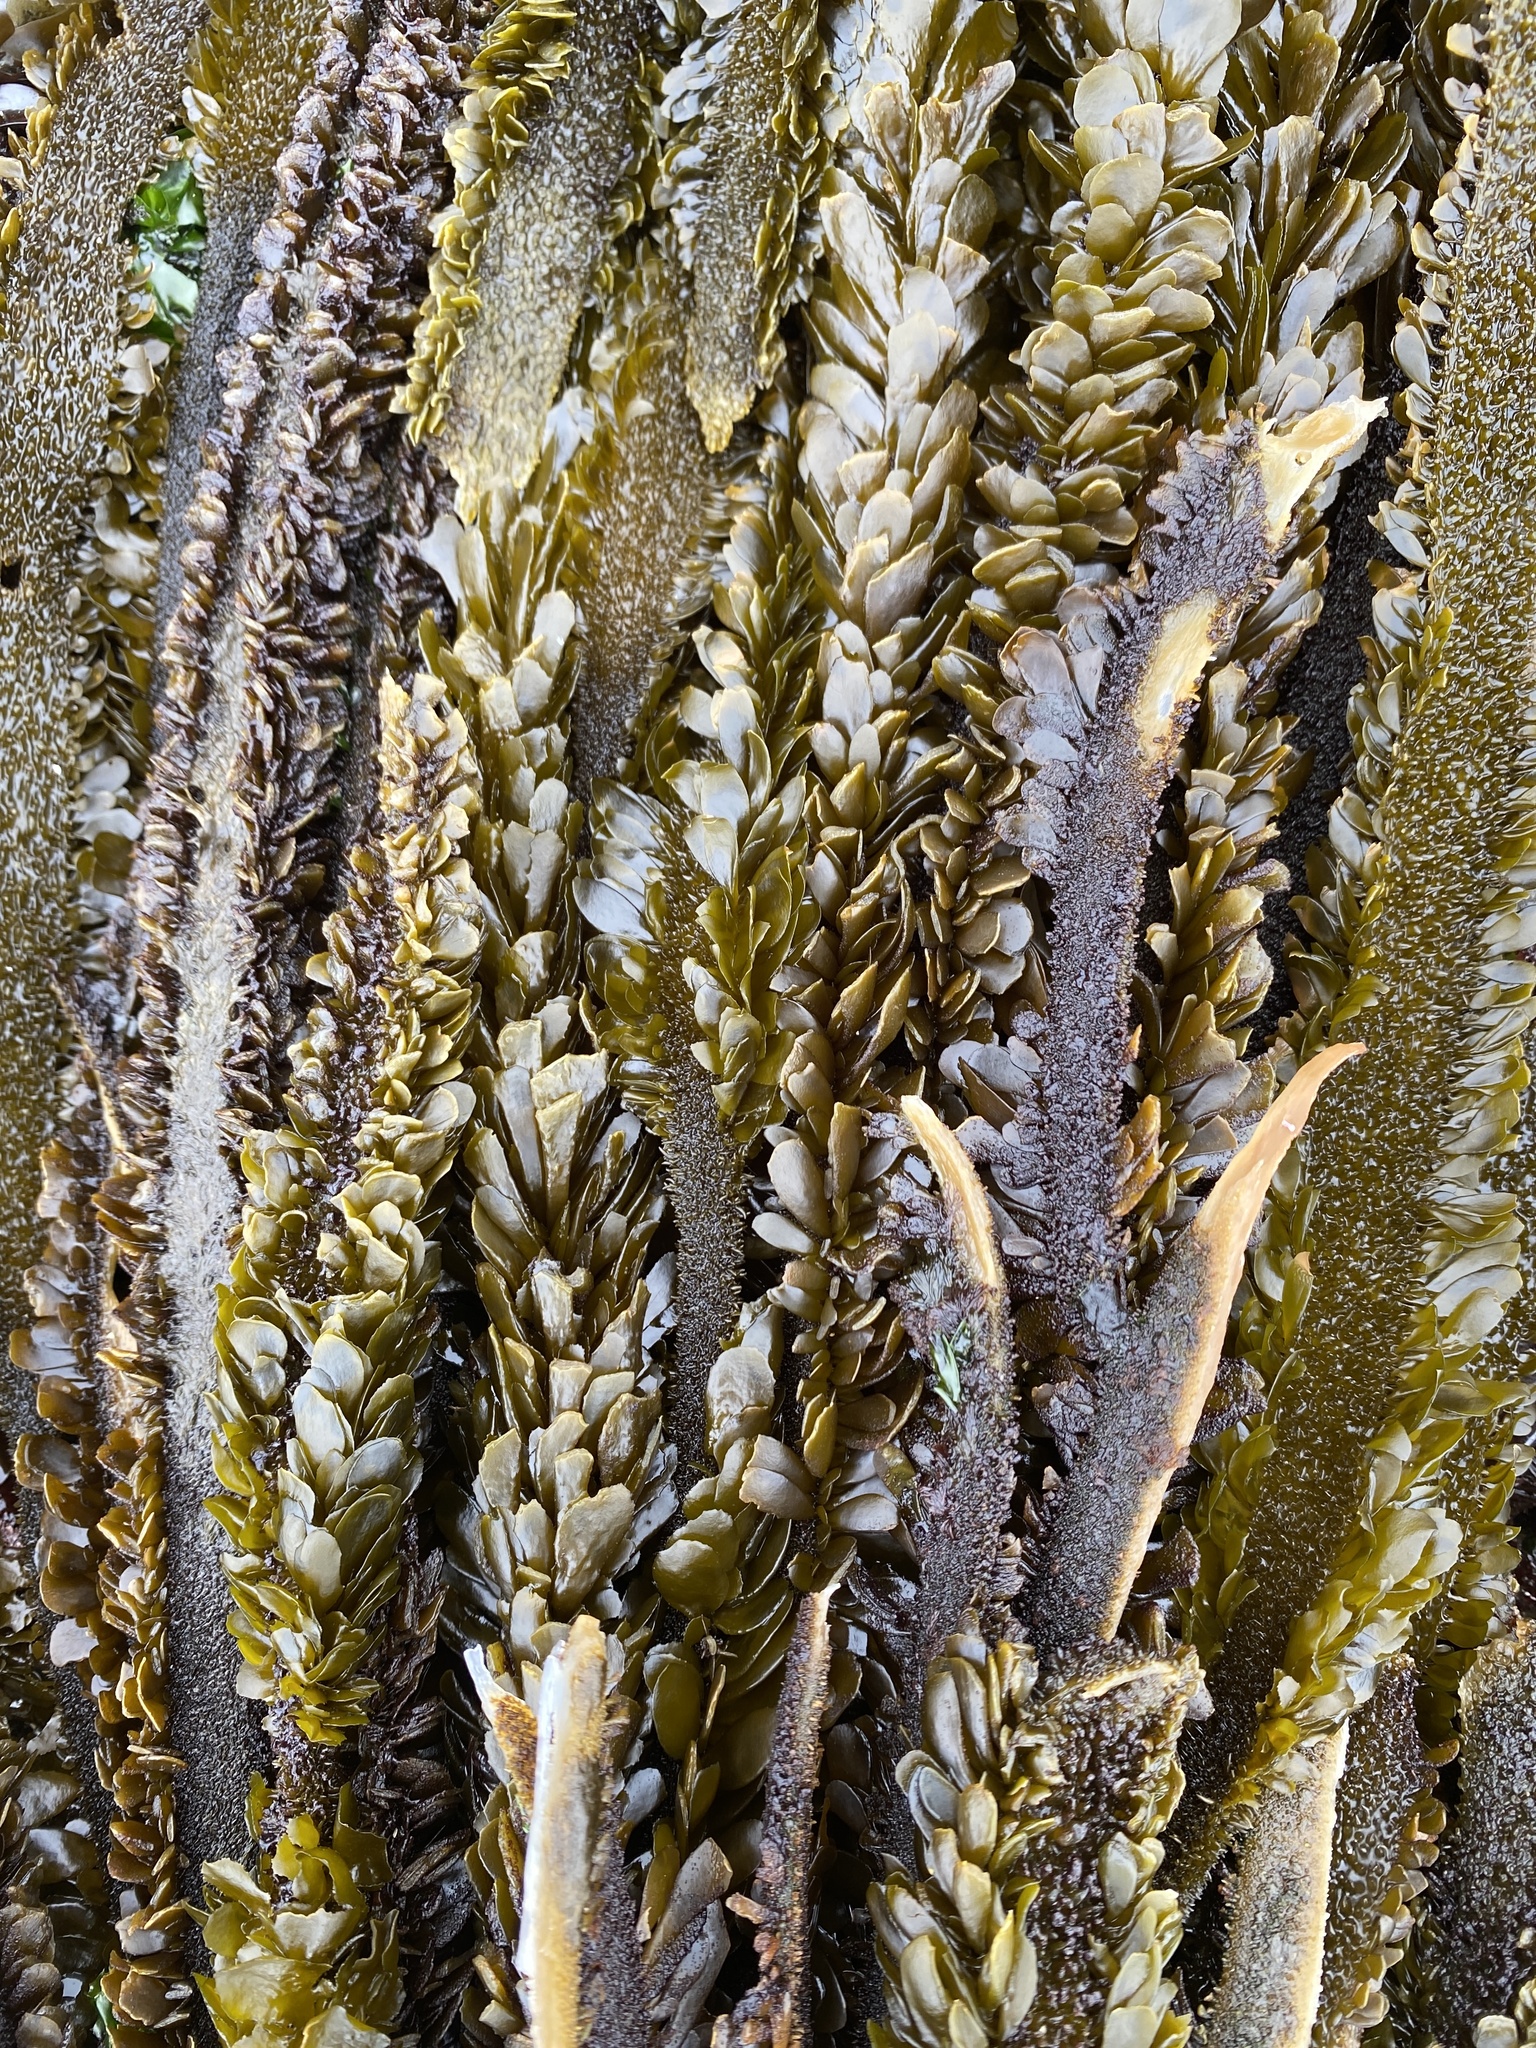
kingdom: Chromista
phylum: Ochrophyta
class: Phaeophyceae
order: Laminariales
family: Lessoniaceae
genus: Egregia
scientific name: Egregia menziesii
